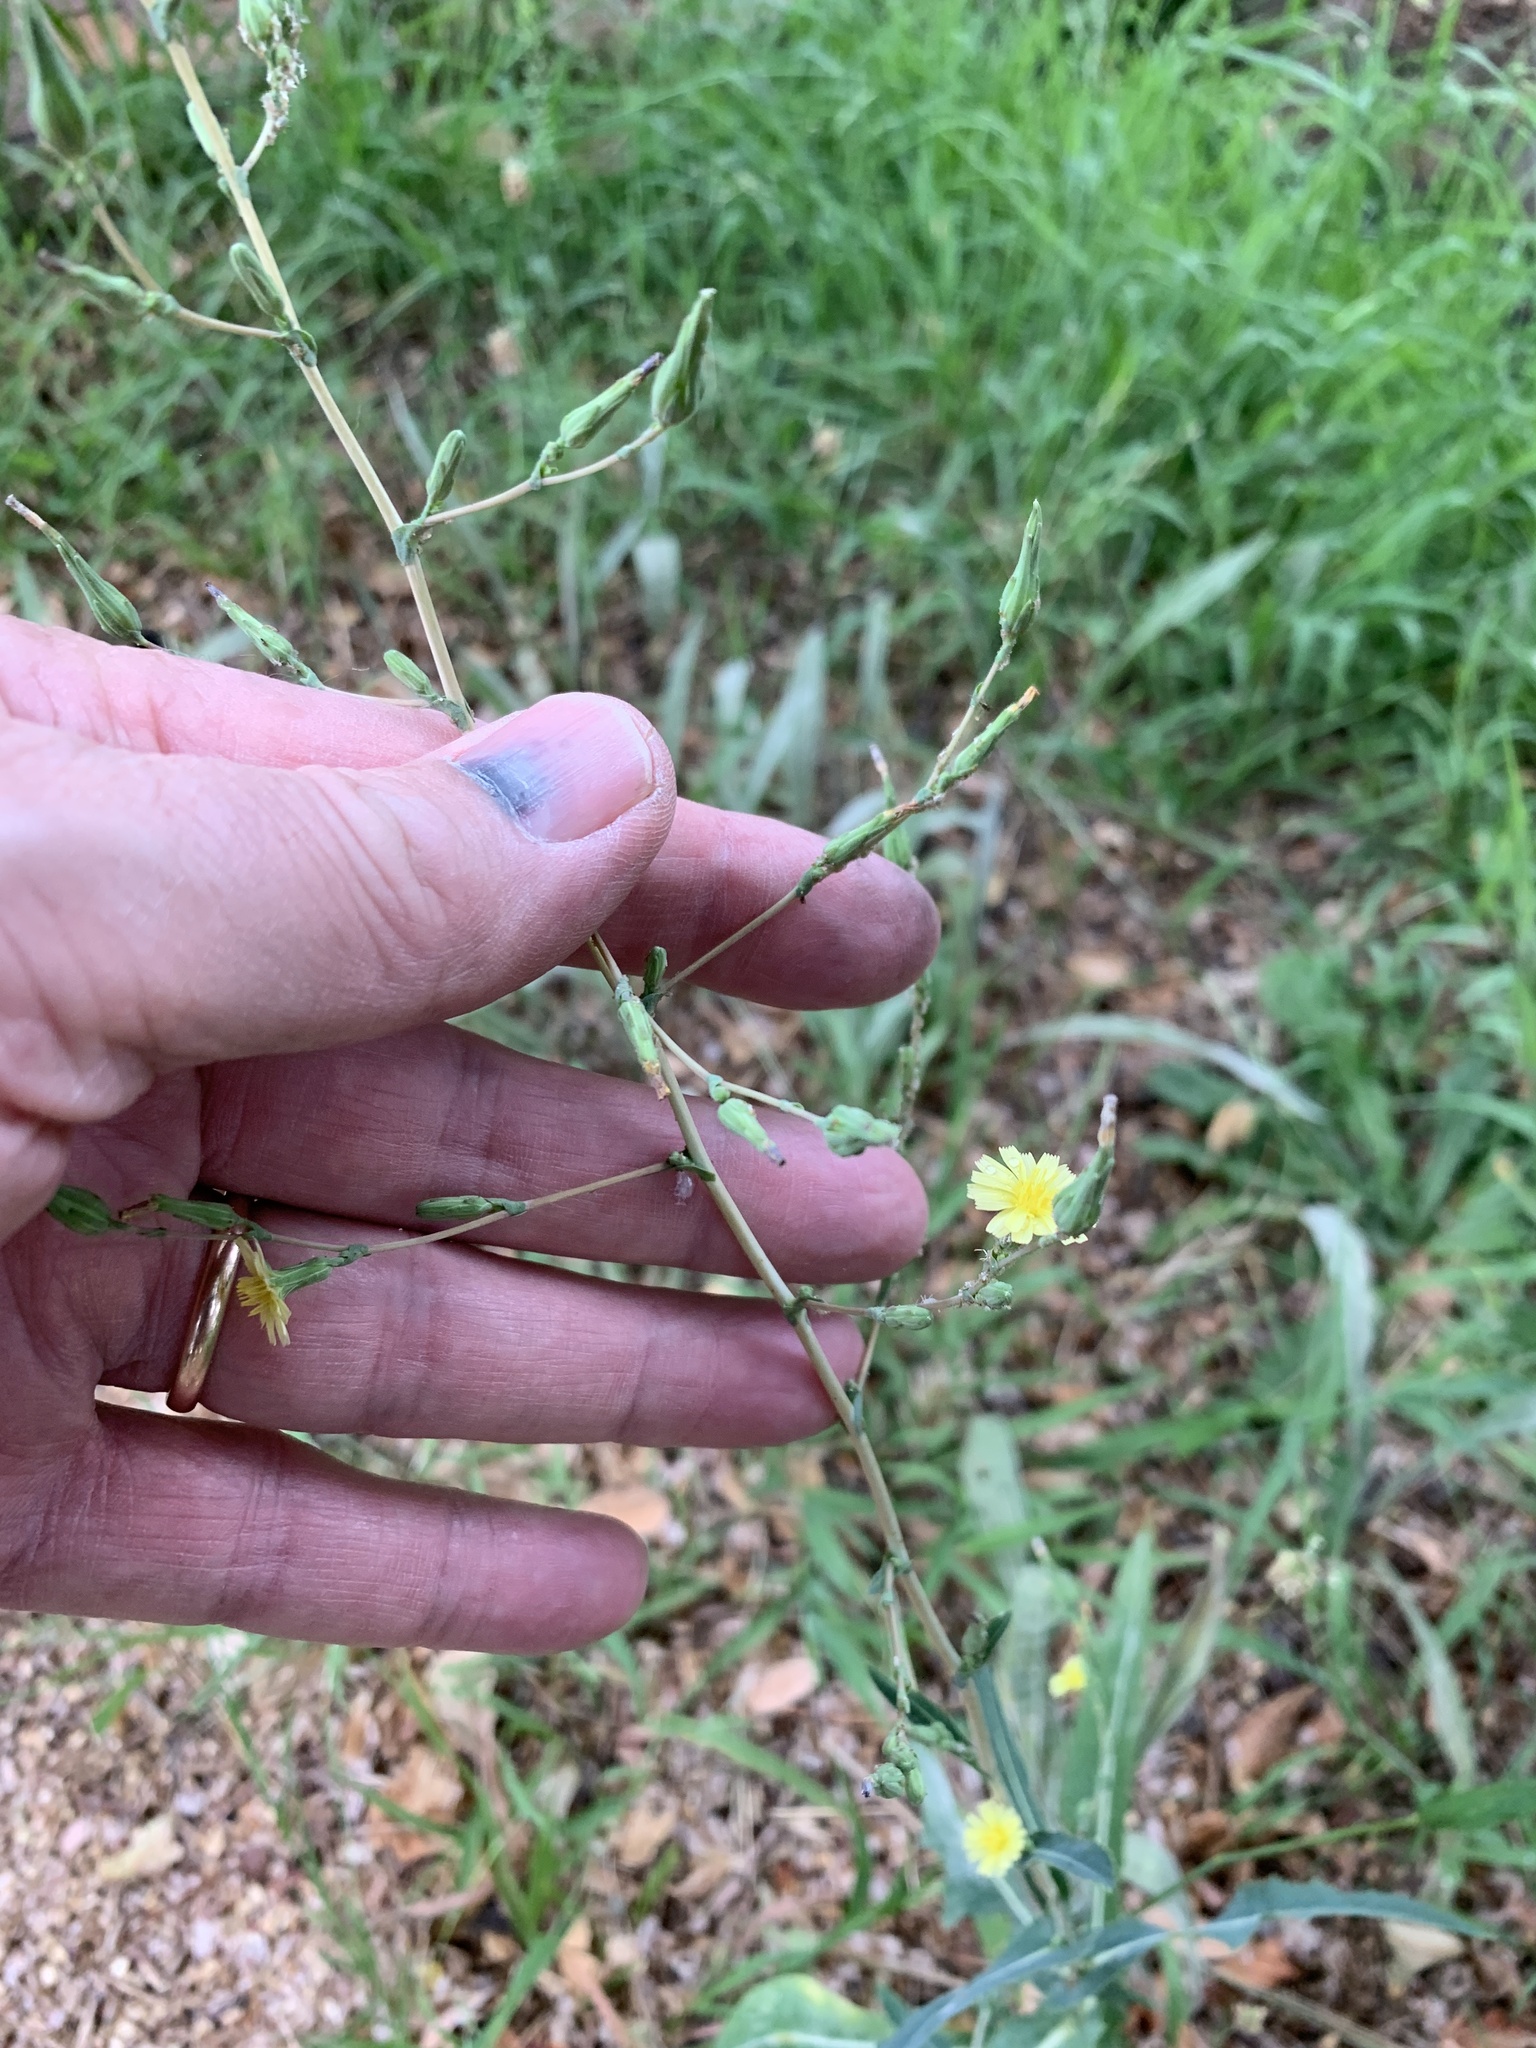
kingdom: Plantae
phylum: Tracheophyta
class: Magnoliopsida
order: Asterales
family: Asteraceae
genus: Lactuca
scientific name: Lactuca serriola
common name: Prickly lettuce
